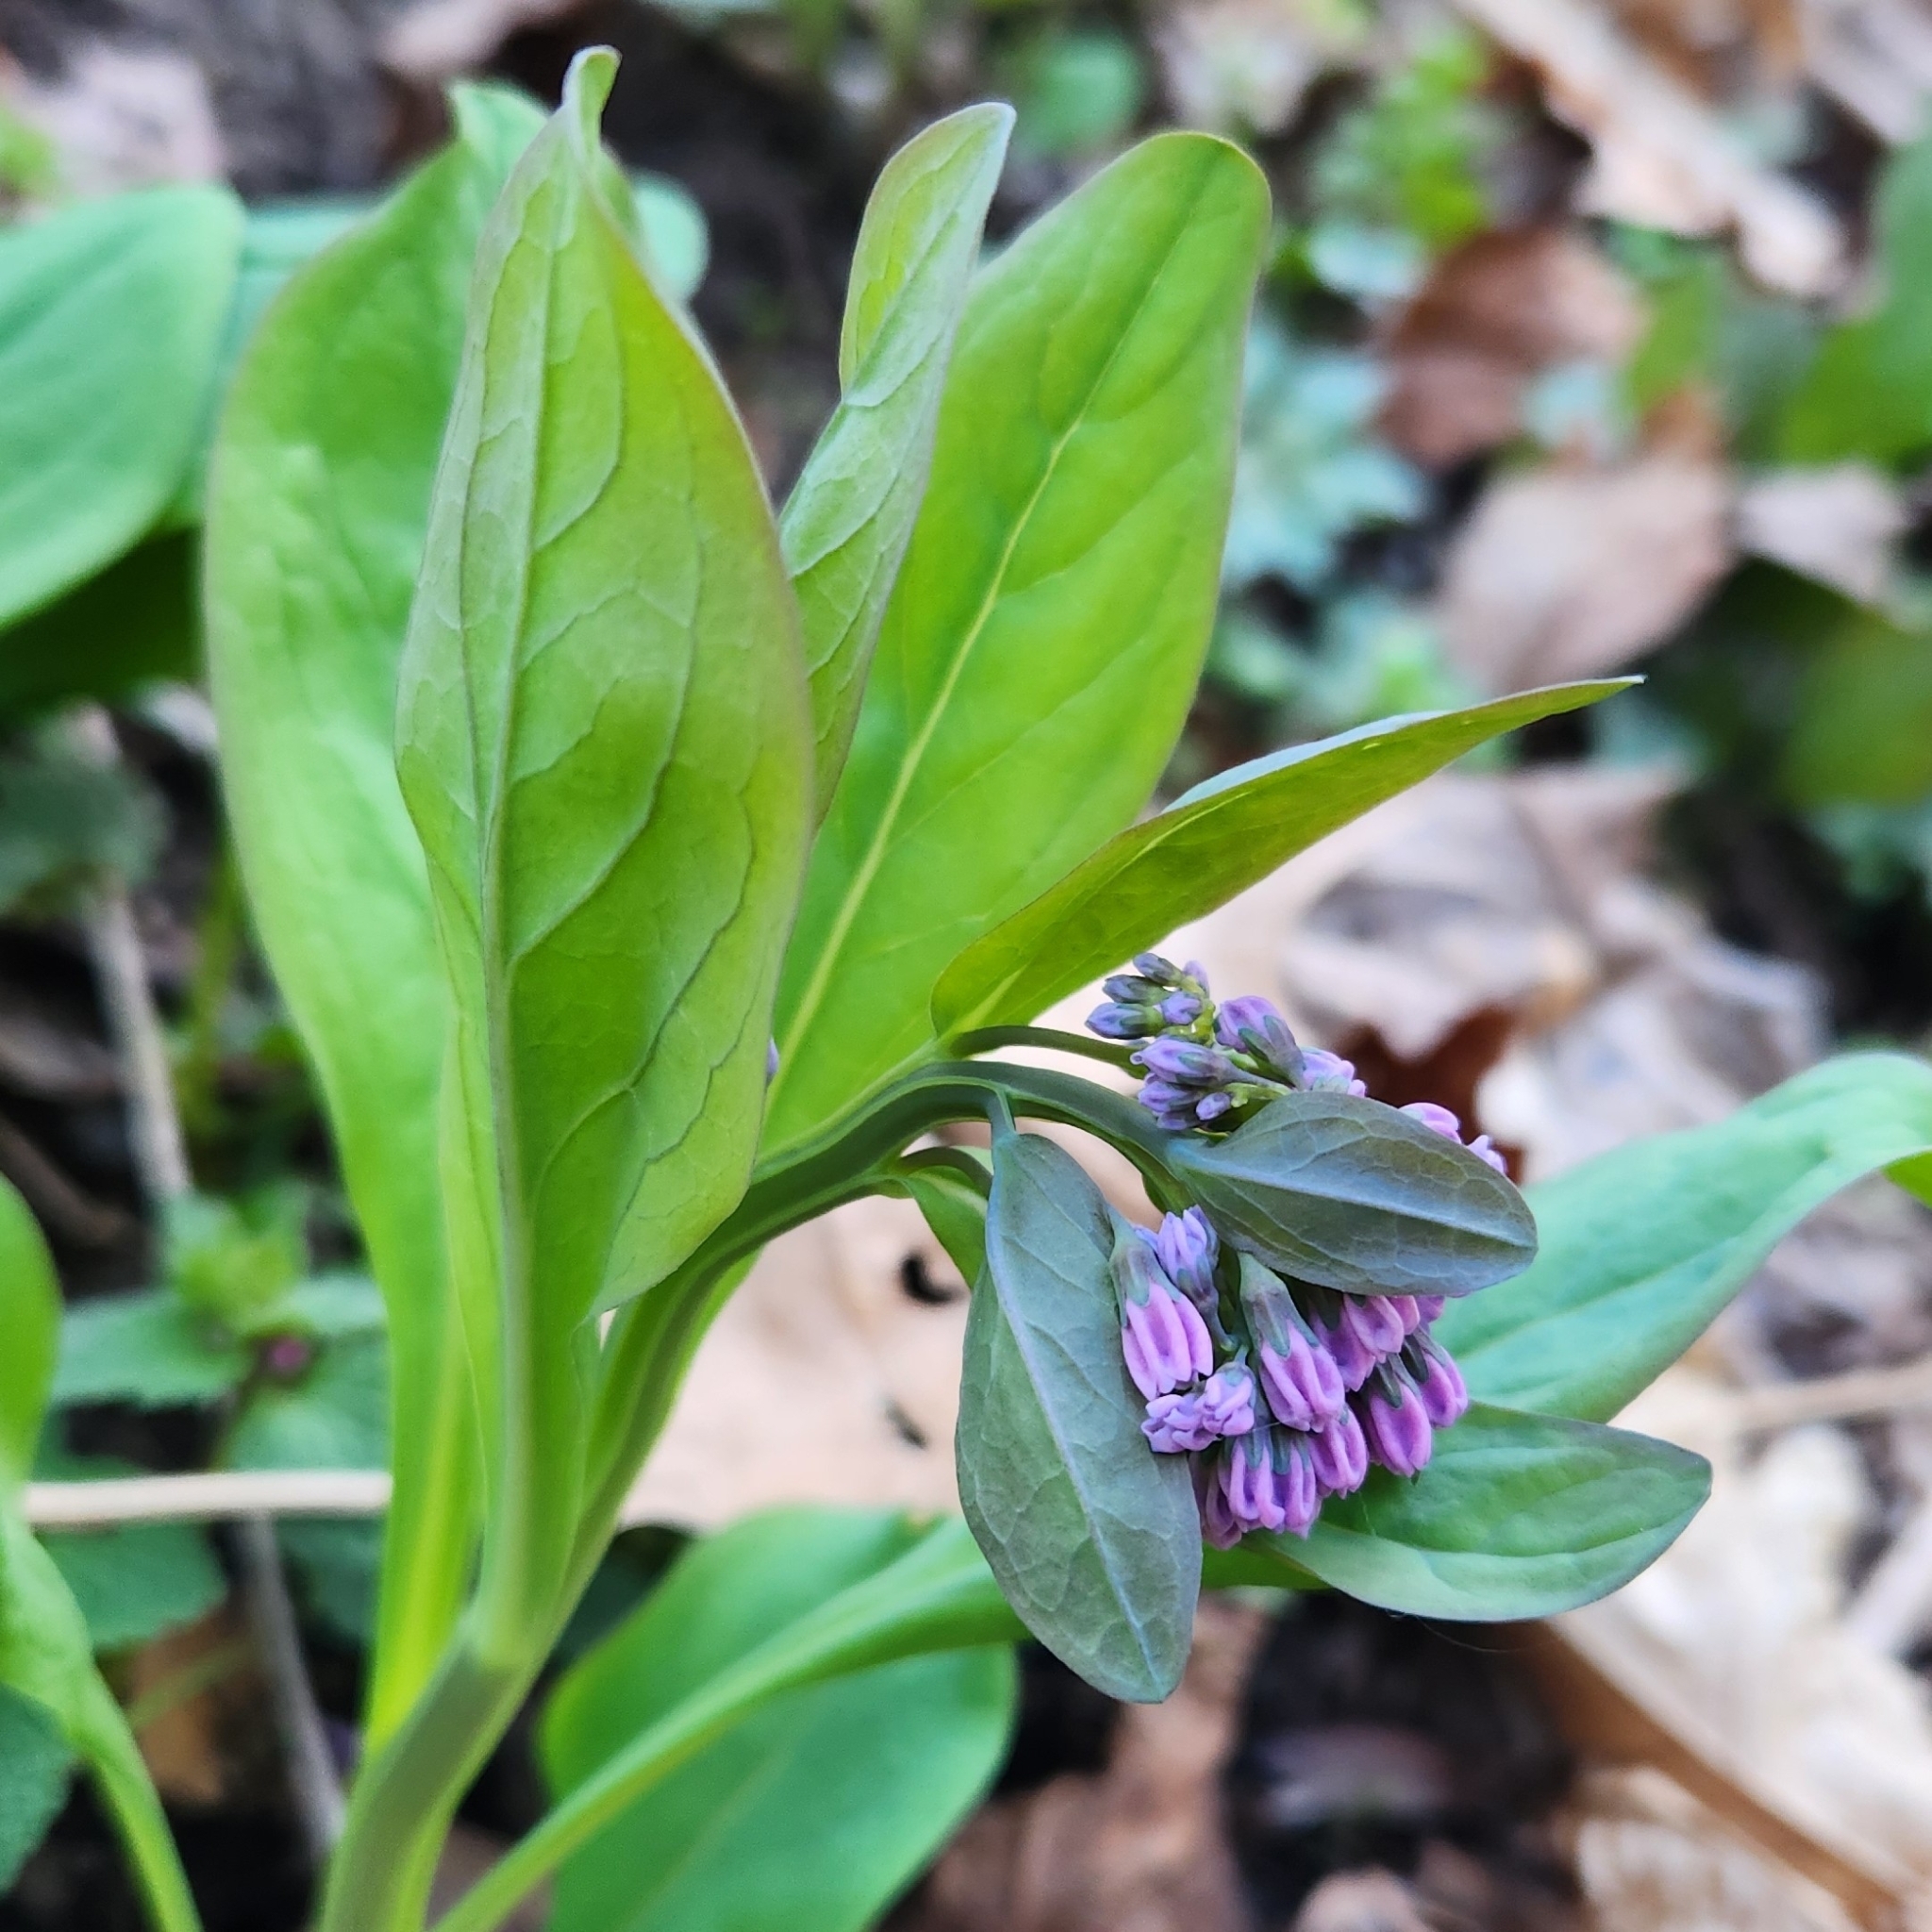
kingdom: Plantae
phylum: Tracheophyta
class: Magnoliopsida
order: Boraginales
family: Boraginaceae
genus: Mertensia
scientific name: Mertensia virginica
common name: Virginia bluebells
